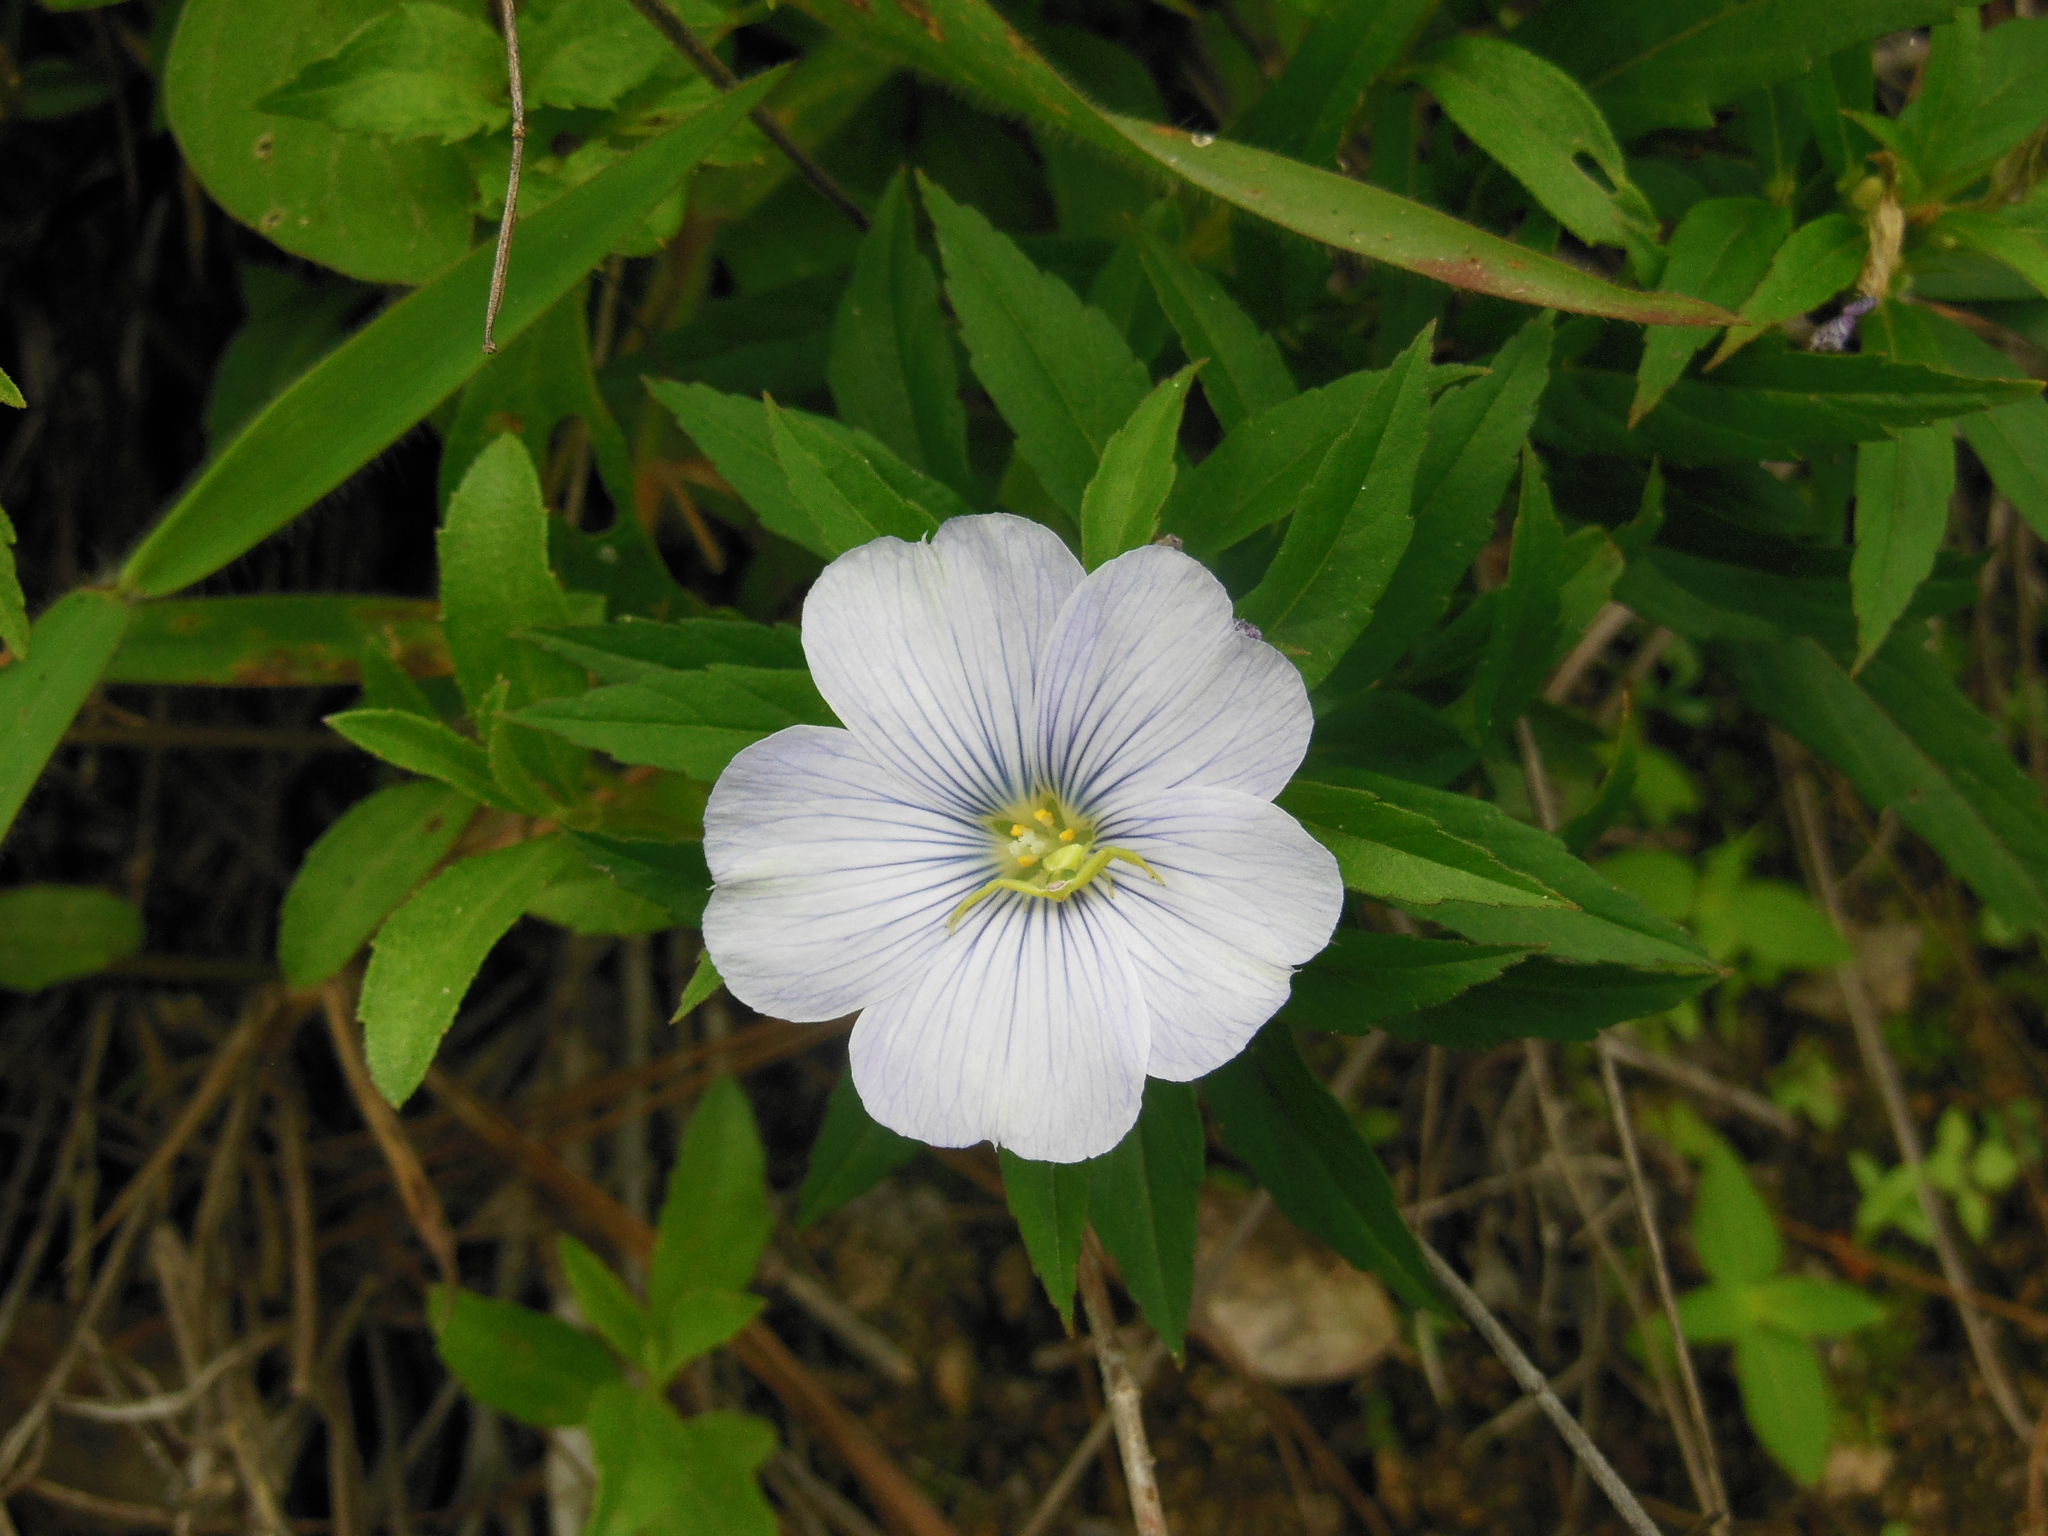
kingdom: Plantae
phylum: Tracheophyta
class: Magnoliopsida
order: Malpighiales
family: Turneraceae
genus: Turnera
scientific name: Turnera coerulea
